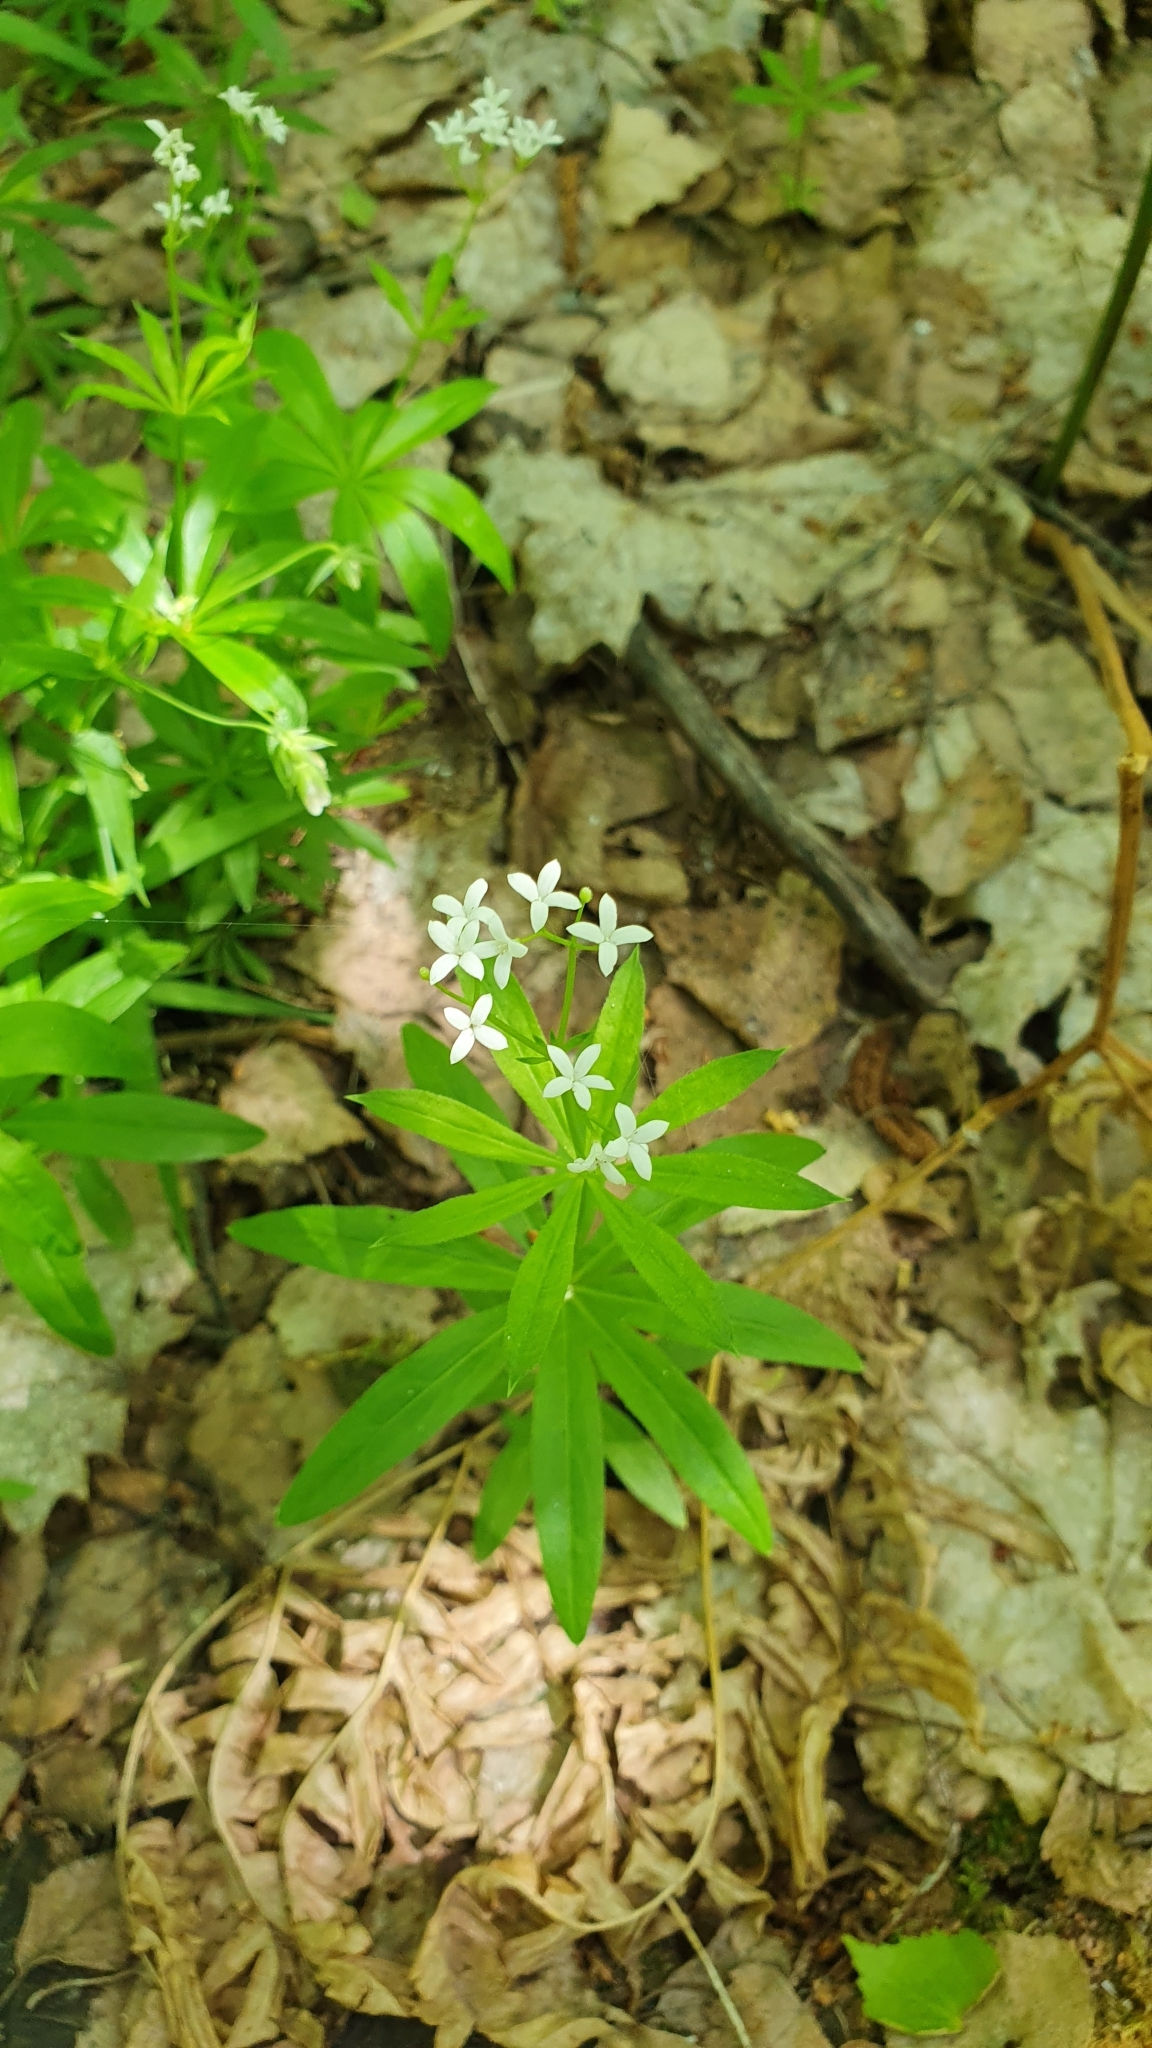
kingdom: Plantae
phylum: Tracheophyta
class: Magnoliopsida
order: Gentianales
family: Rubiaceae
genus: Galium
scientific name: Galium odoratum
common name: Sweet woodruff
